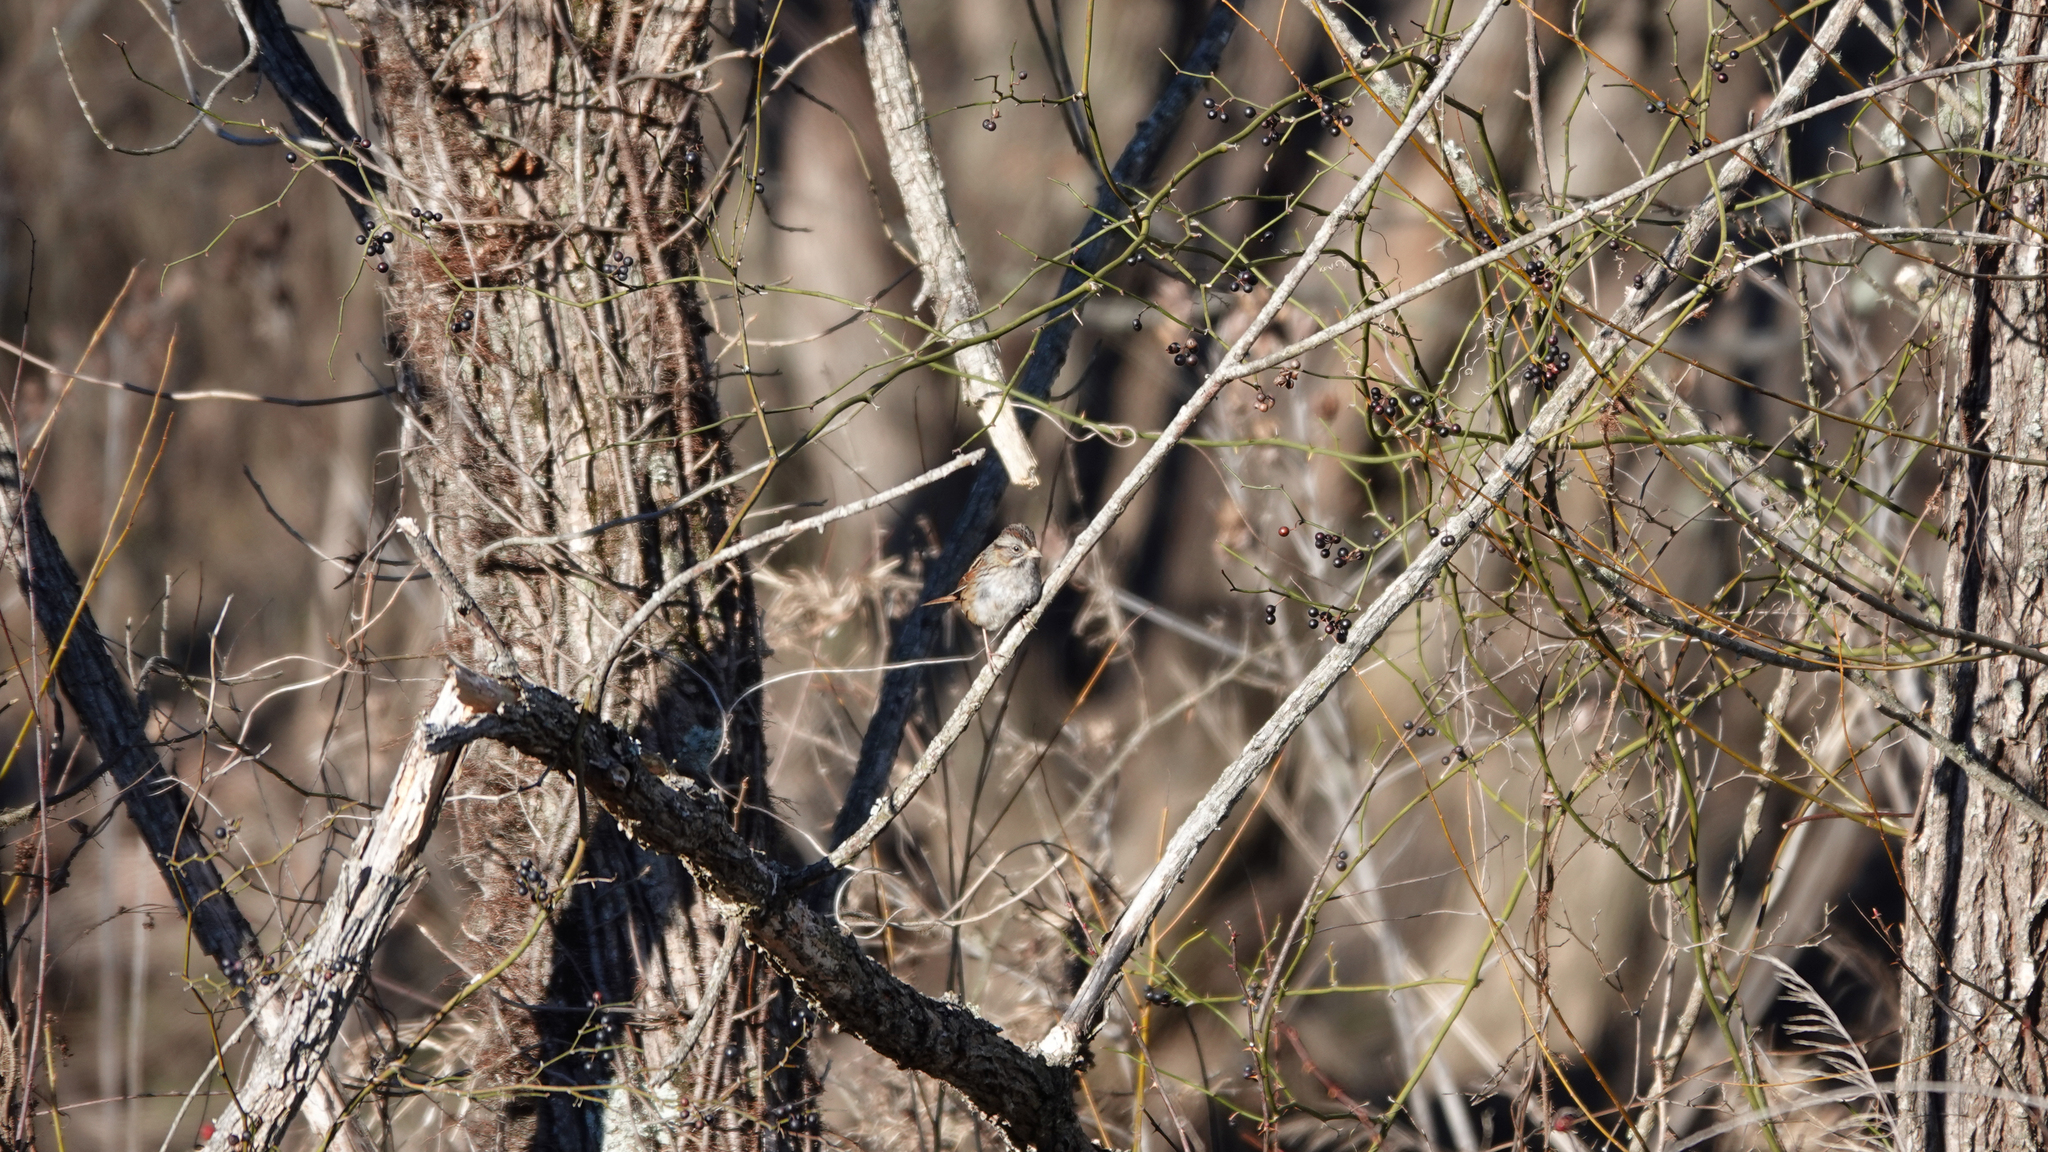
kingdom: Animalia
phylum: Chordata
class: Aves
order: Passeriformes
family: Passerellidae
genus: Melospiza
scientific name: Melospiza georgiana
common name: Swamp sparrow
